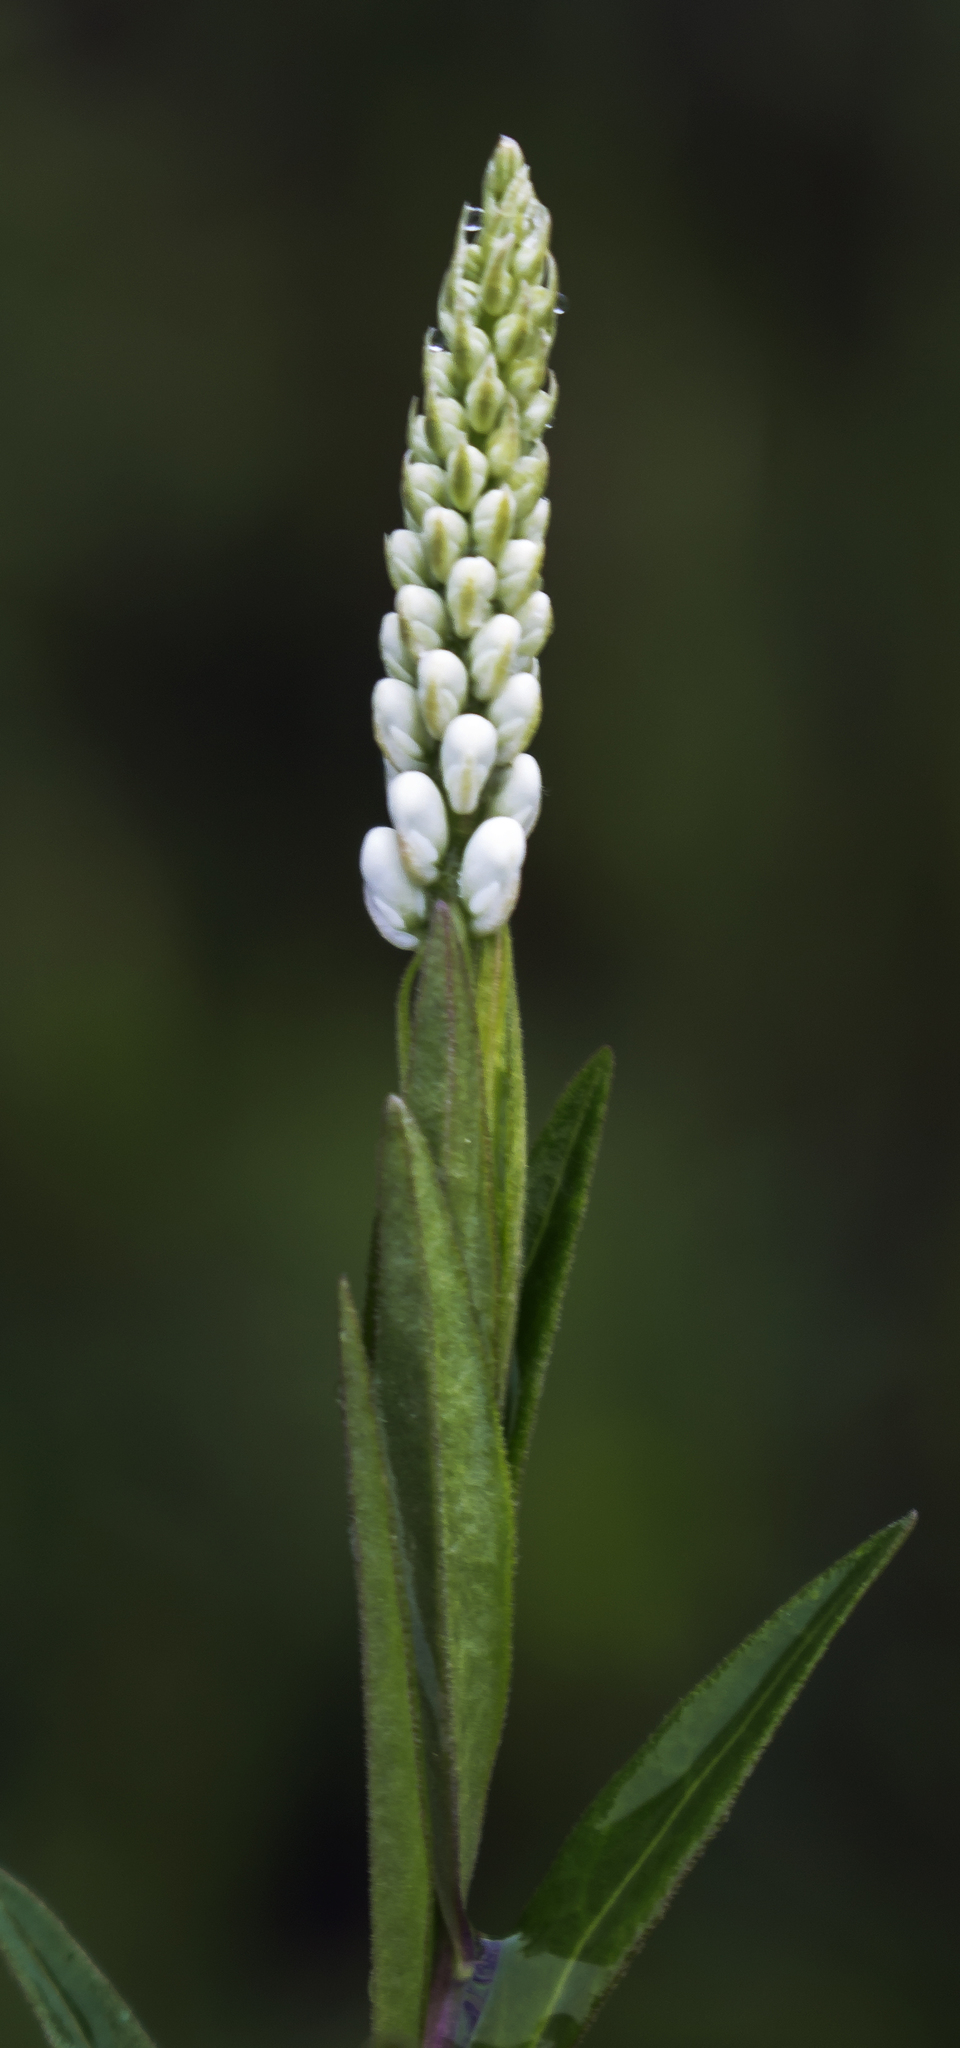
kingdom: Plantae
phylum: Tracheophyta
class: Magnoliopsida
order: Fabales
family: Polygalaceae
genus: Polygala
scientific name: Polygala senega
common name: Seneca snakeroot
